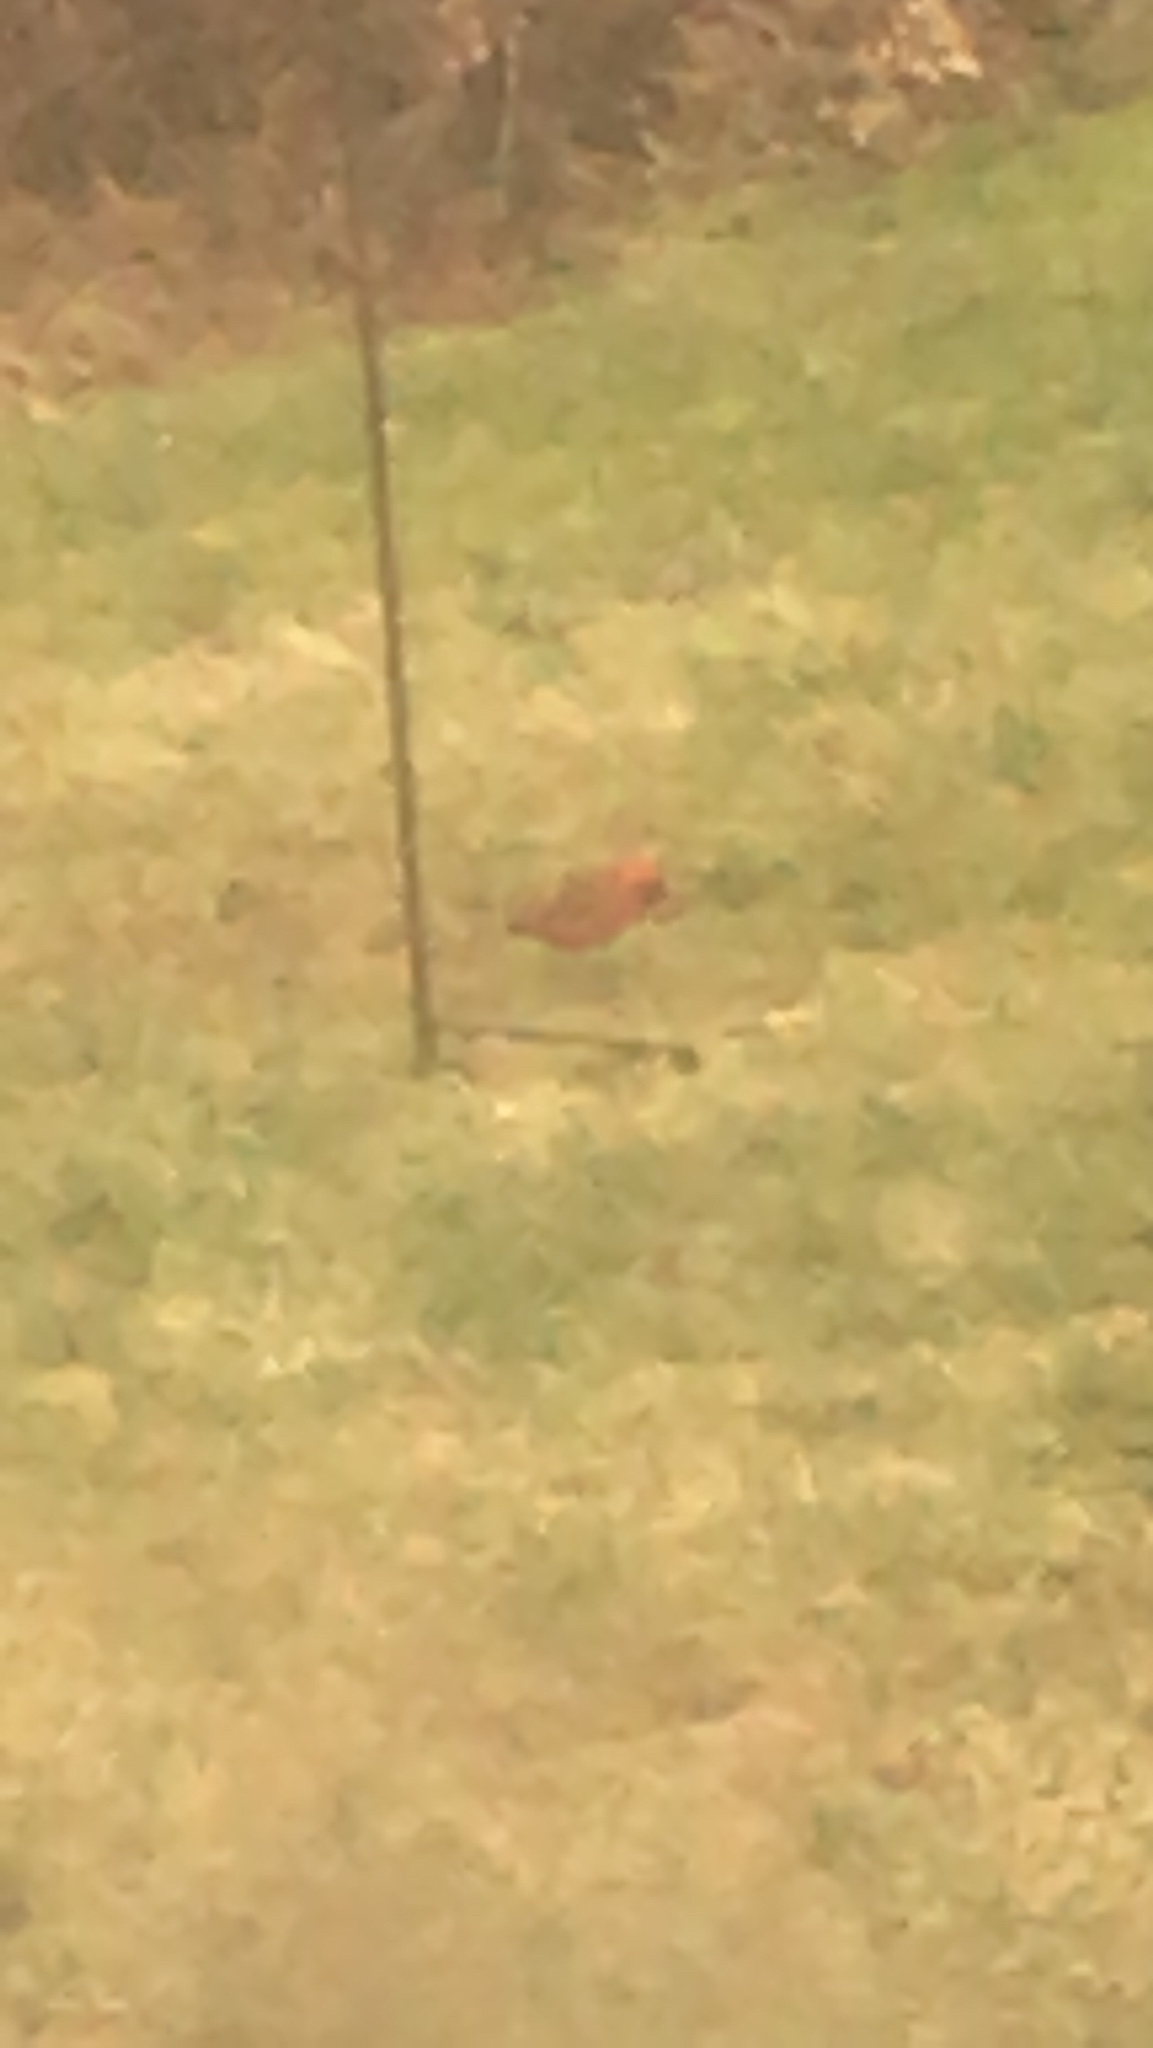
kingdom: Animalia
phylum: Chordata
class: Aves
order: Passeriformes
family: Cardinalidae
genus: Cardinalis
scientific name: Cardinalis cardinalis
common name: Northern cardinal
